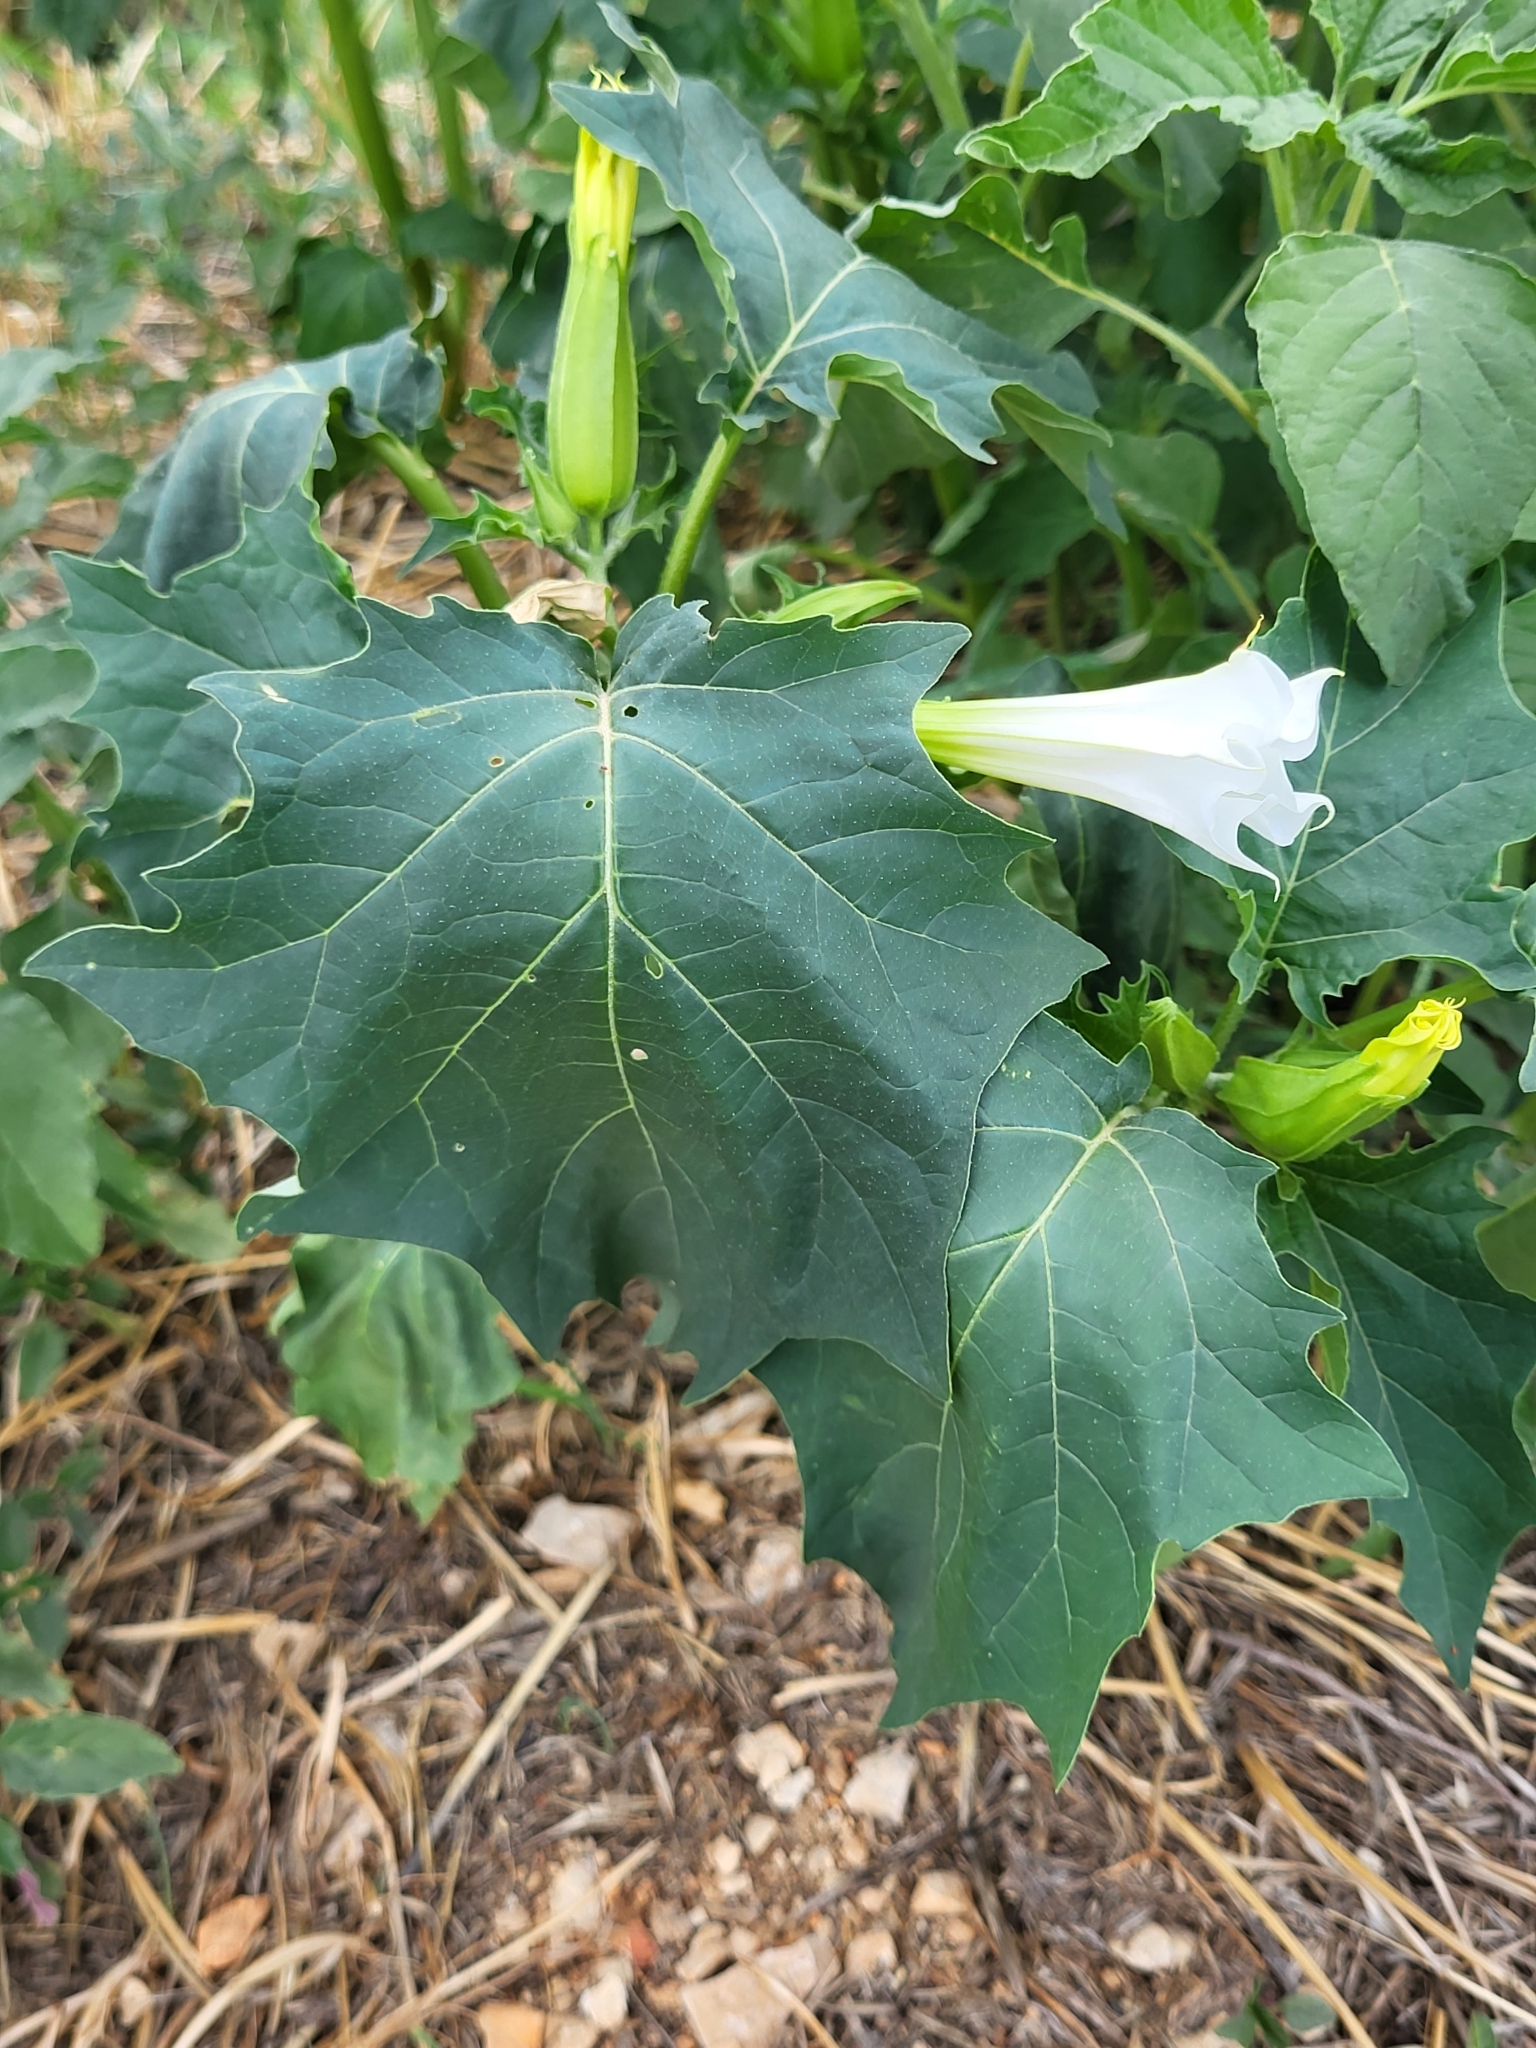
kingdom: Plantae
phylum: Tracheophyta
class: Magnoliopsida
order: Solanales
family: Solanaceae
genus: Datura
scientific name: Datura stramonium
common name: Thorn-apple
